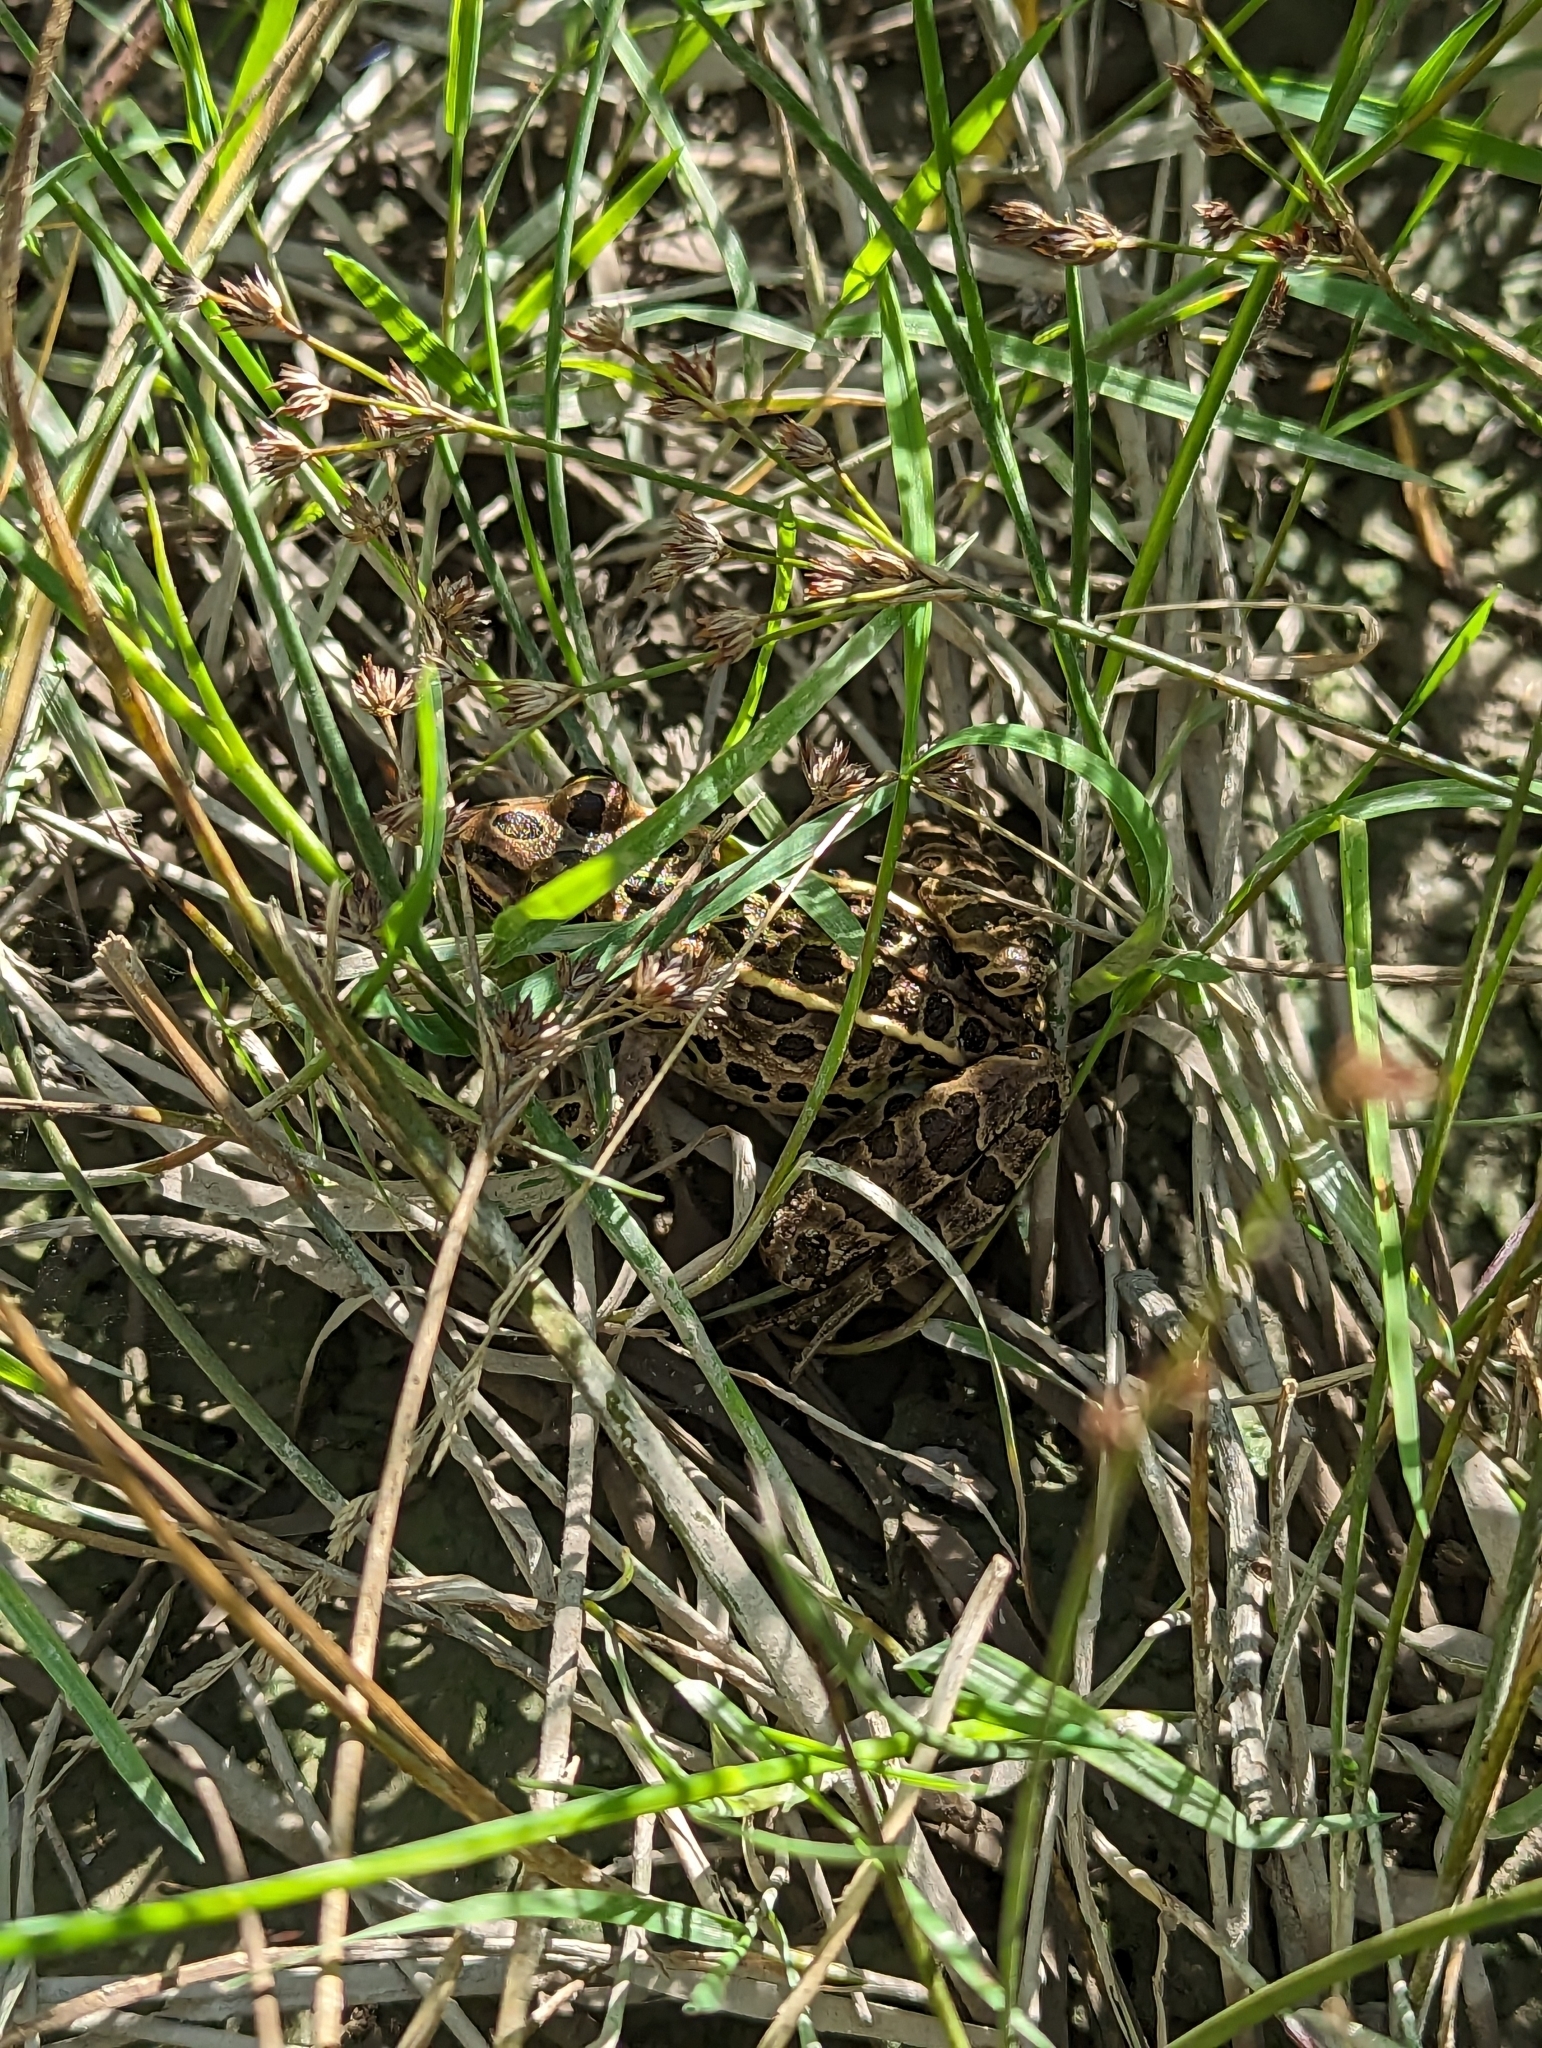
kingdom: Animalia
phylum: Chordata
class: Amphibia
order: Anura
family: Ranidae
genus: Lithobates
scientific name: Lithobates pipiens
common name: Northern leopard frog
